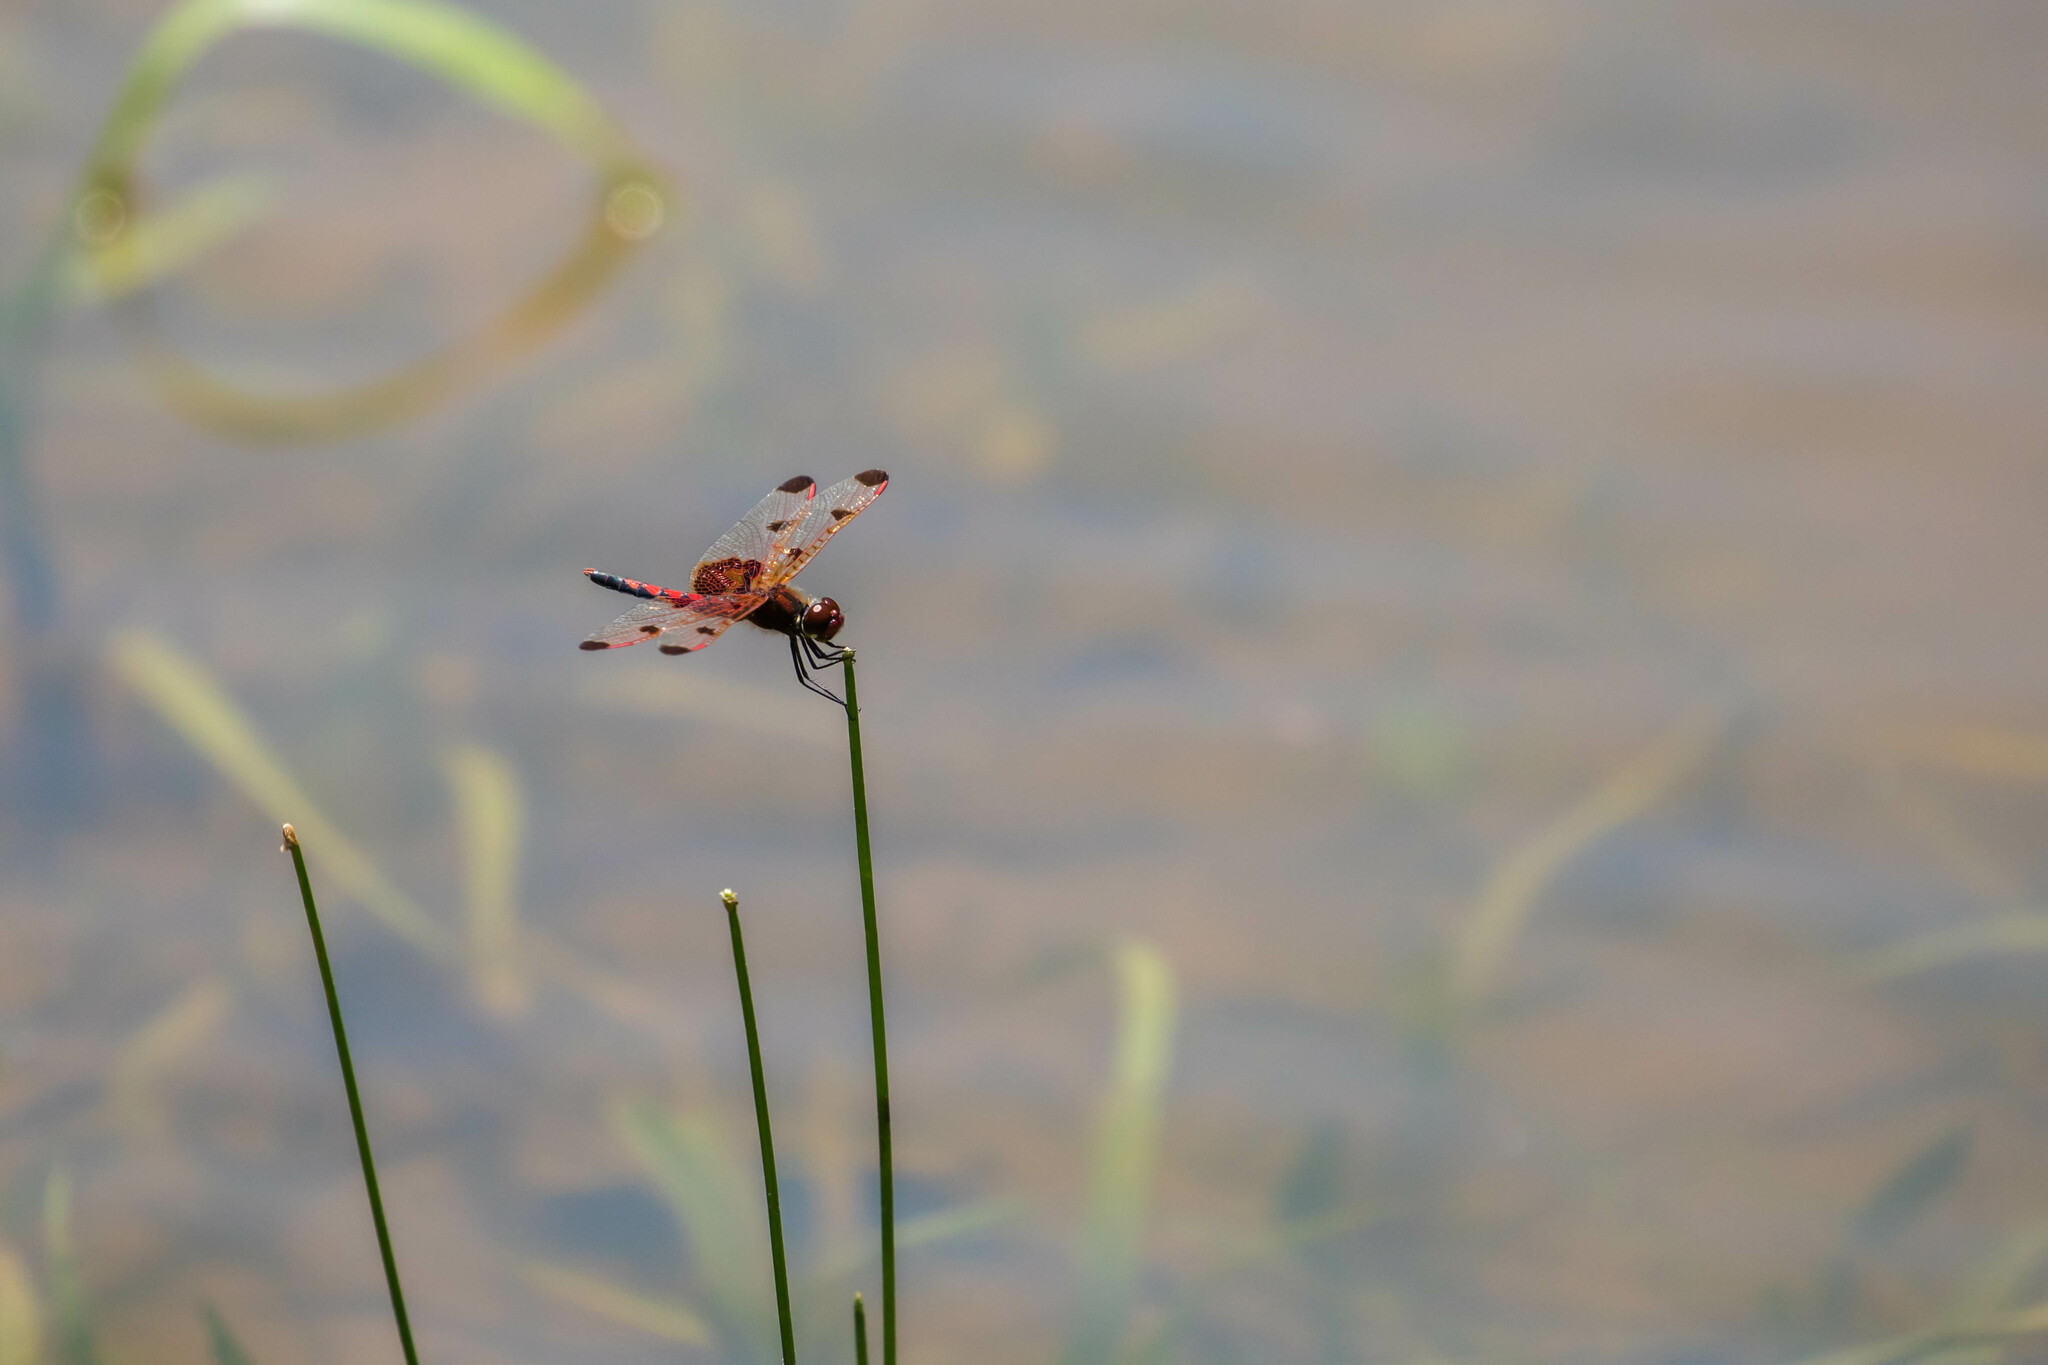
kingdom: Animalia
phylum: Arthropoda
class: Insecta
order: Odonata
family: Libellulidae
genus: Celithemis
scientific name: Celithemis elisa
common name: Calico pennant
